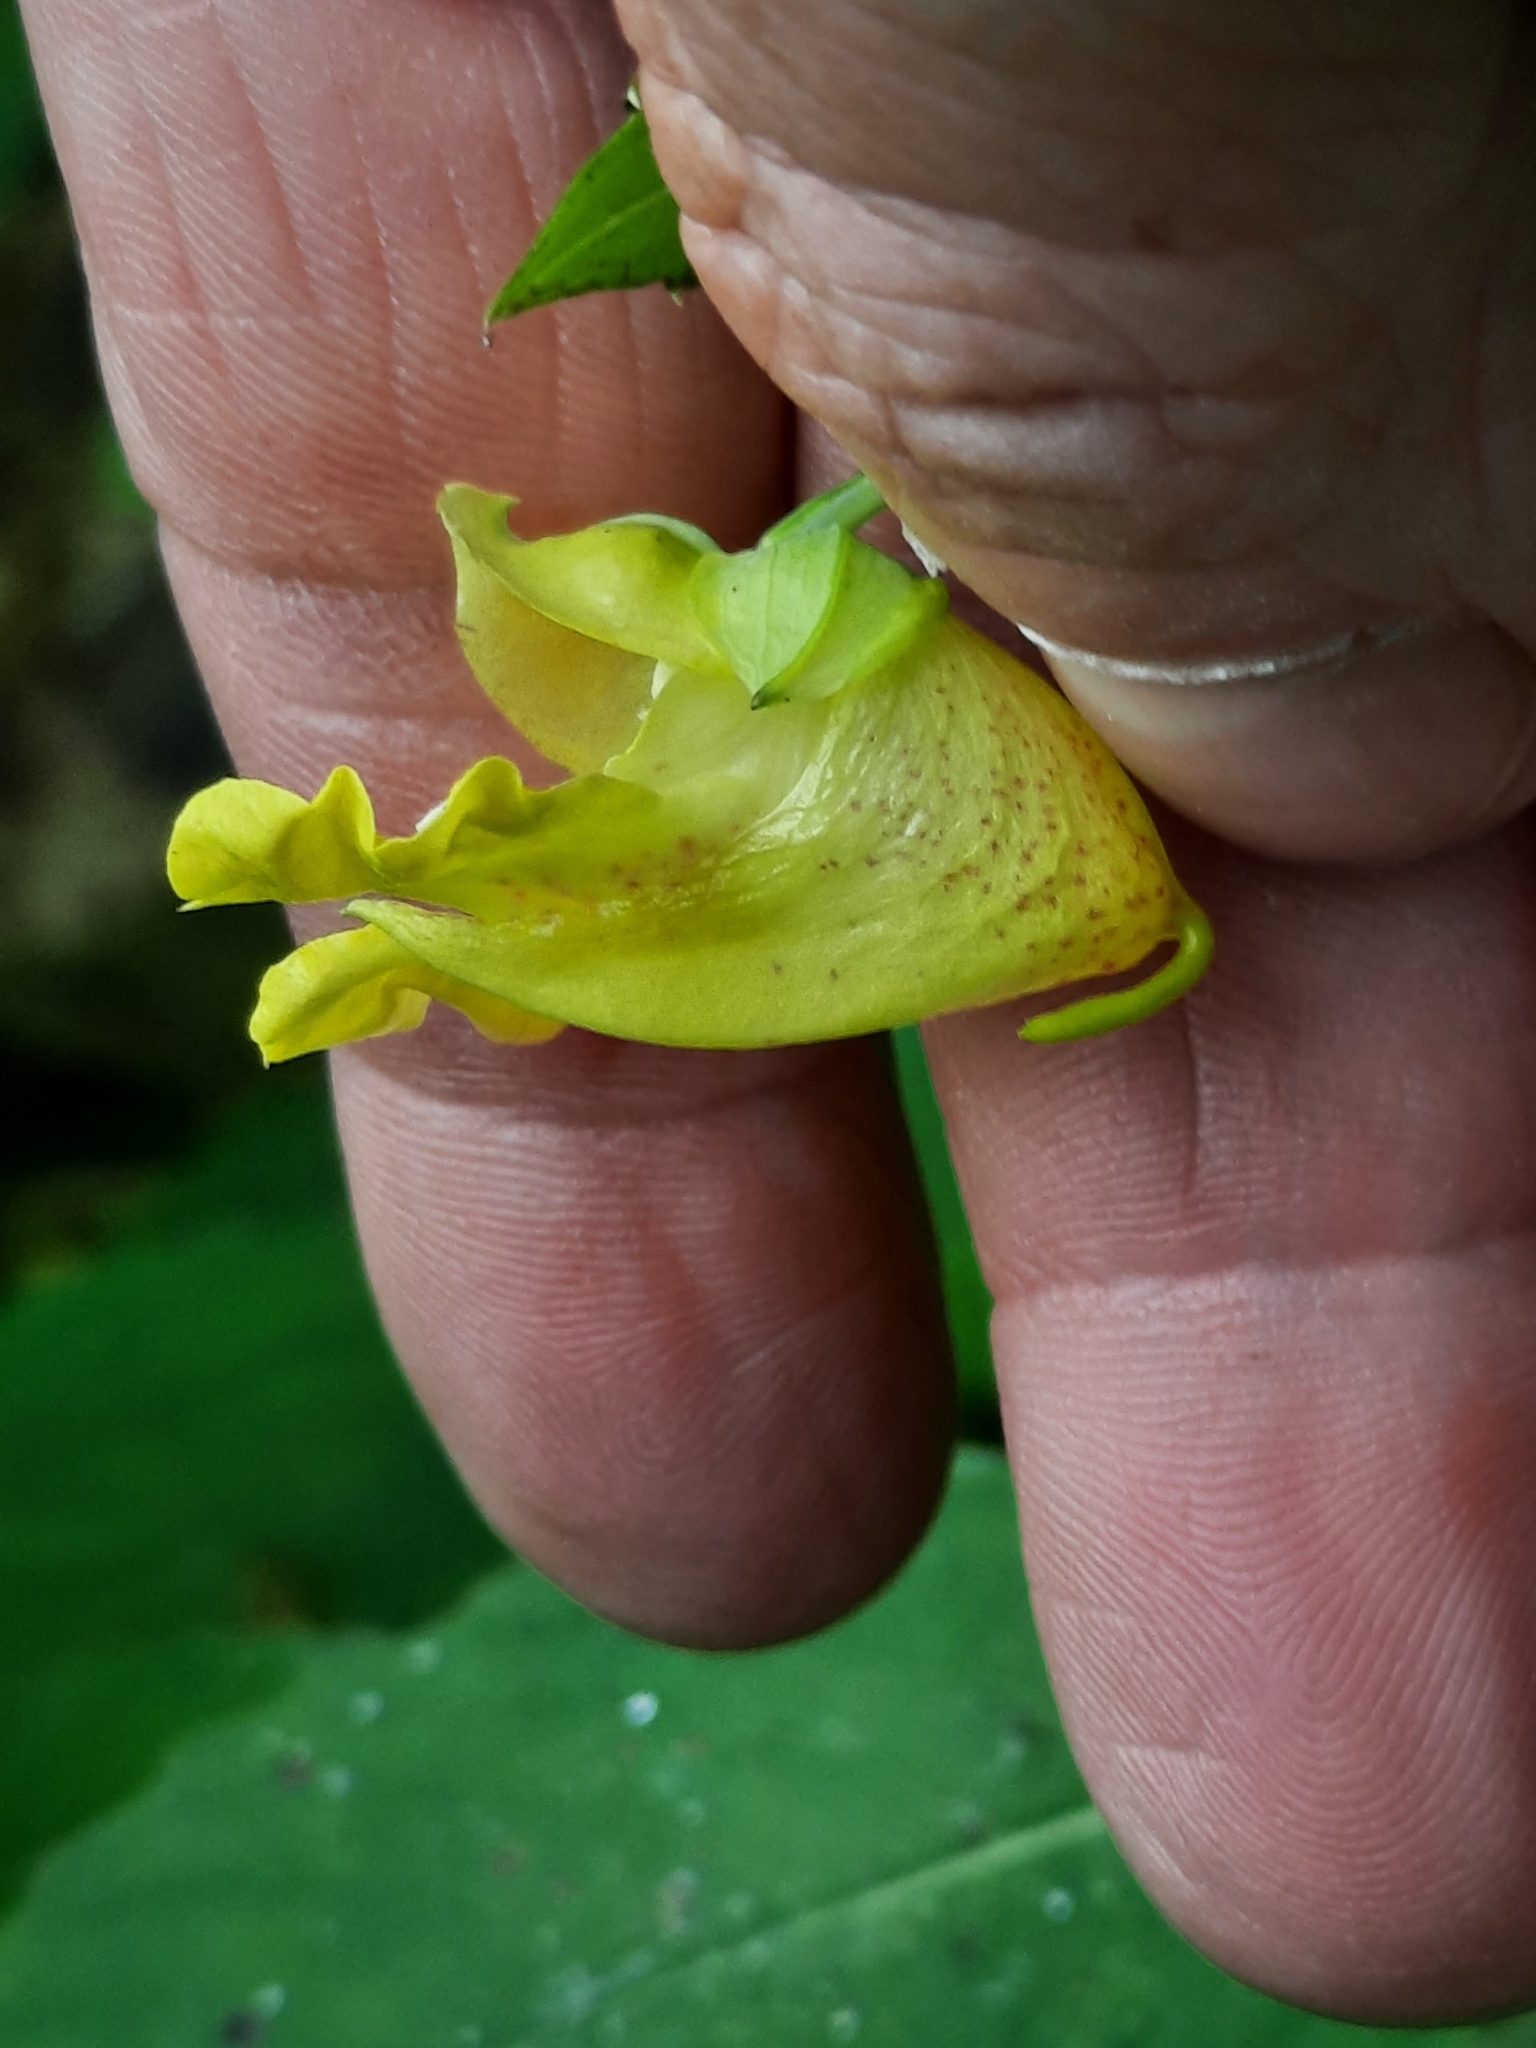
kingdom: Plantae
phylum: Tracheophyta
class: Magnoliopsida
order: Ericales
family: Balsaminaceae
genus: Impatiens
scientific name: Impatiens pallida
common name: Pale snapweed
